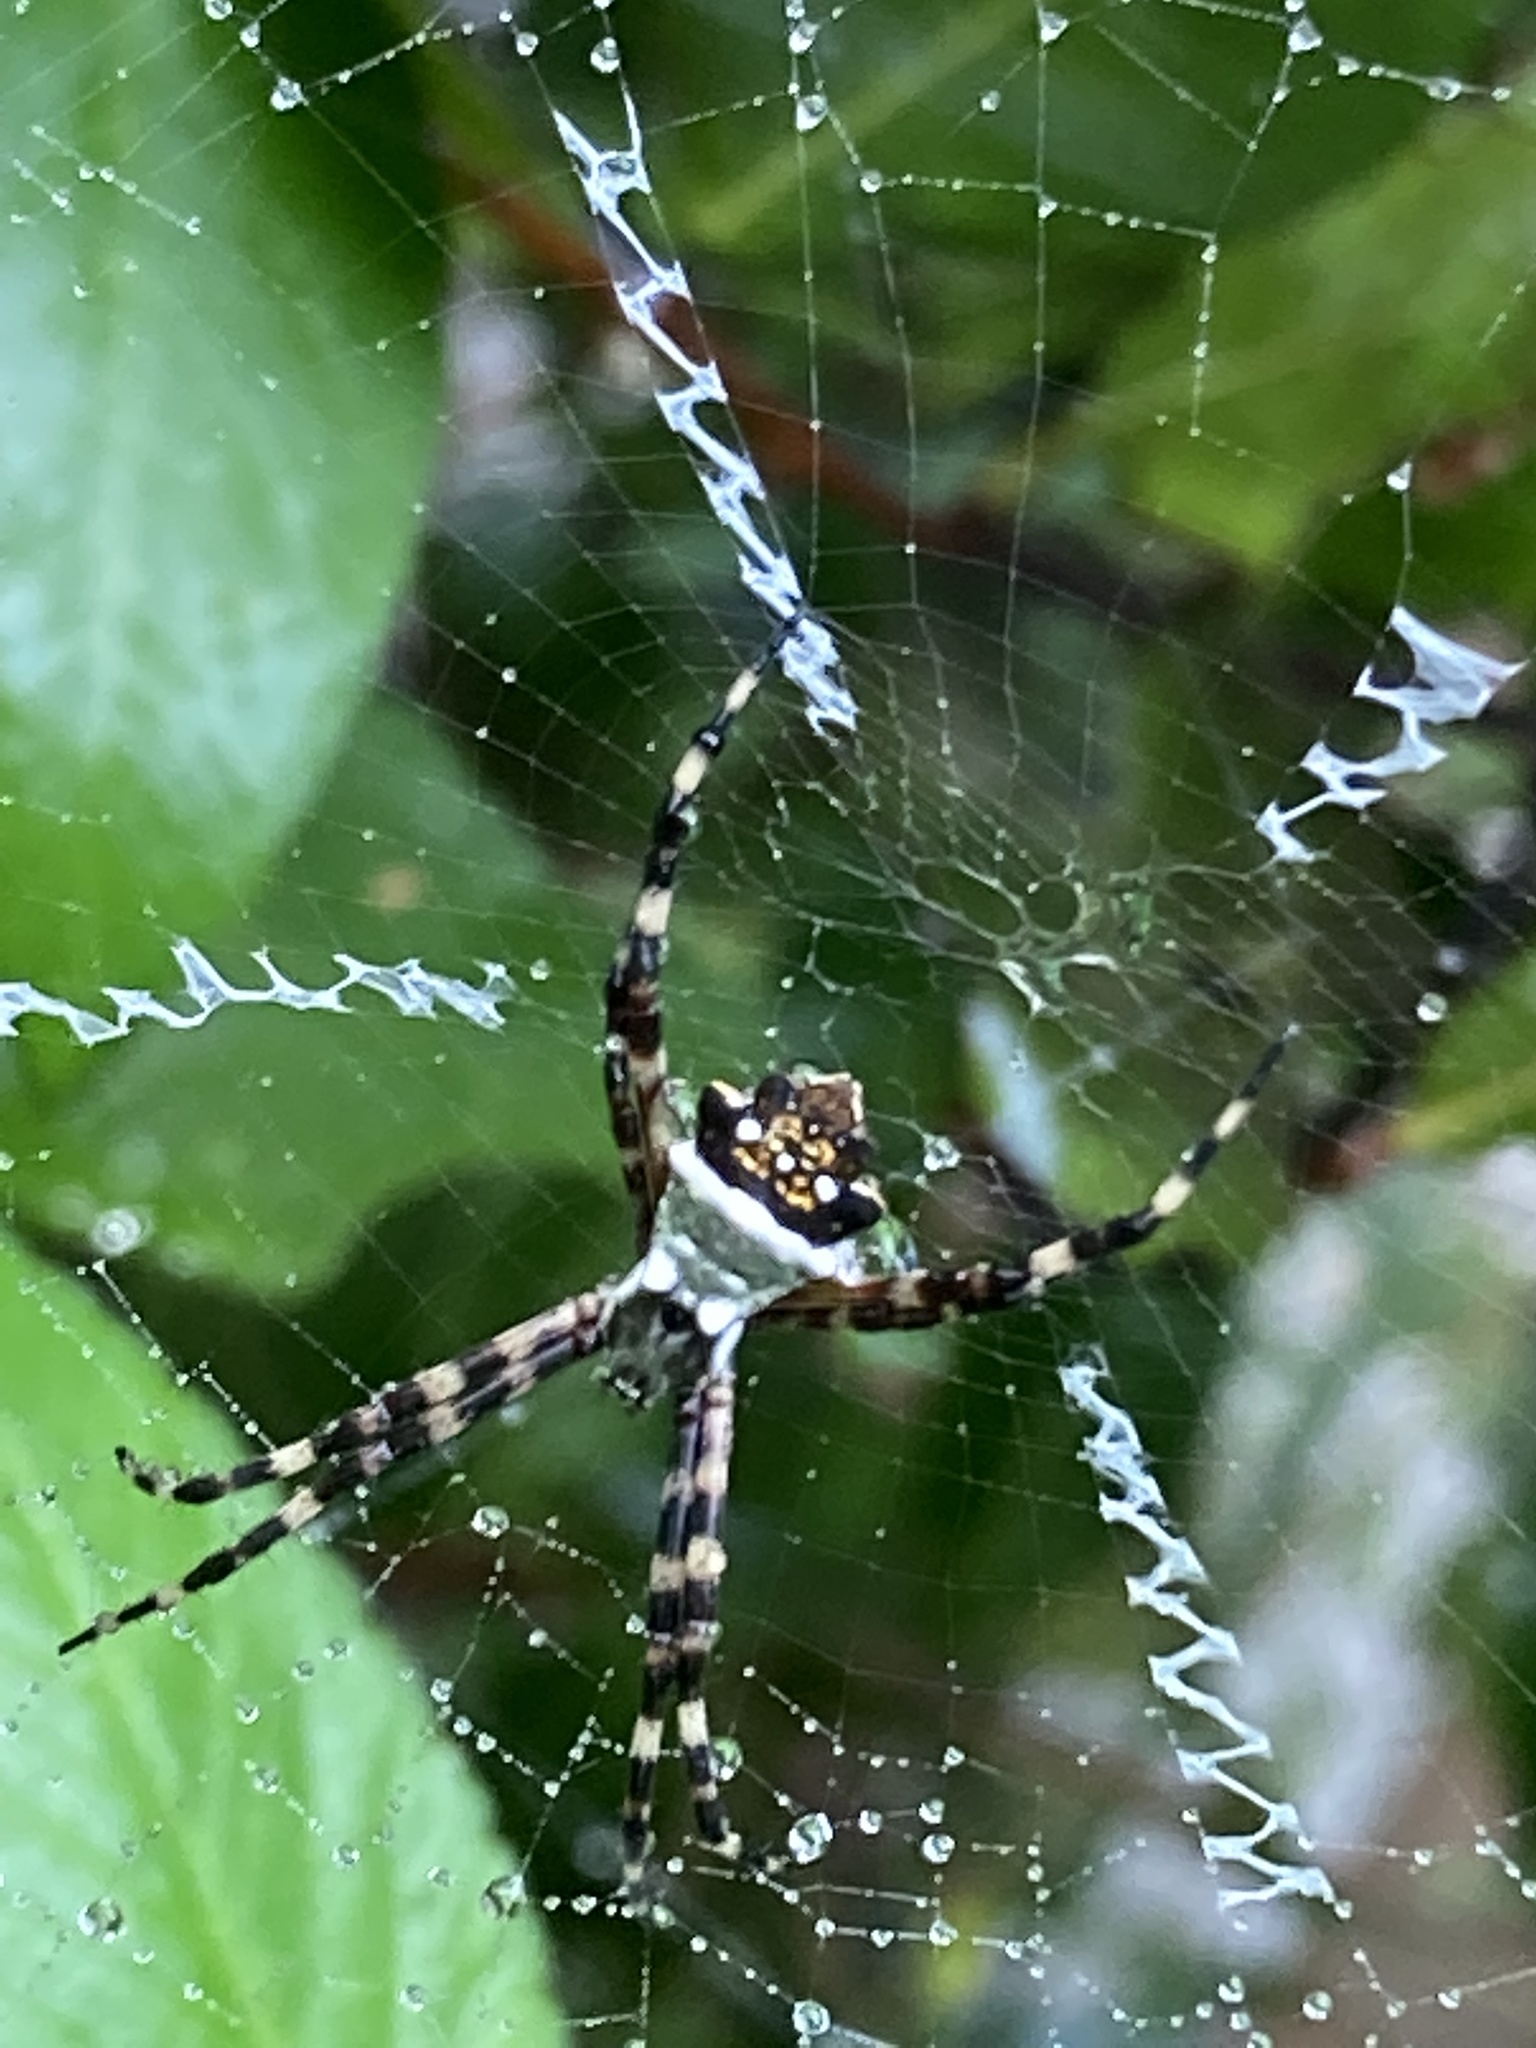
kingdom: Animalia
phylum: Arthropoda
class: Arachnida
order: Araneae
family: Araneidae
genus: Argiope
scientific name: Argiope argentata
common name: Orb weavers
